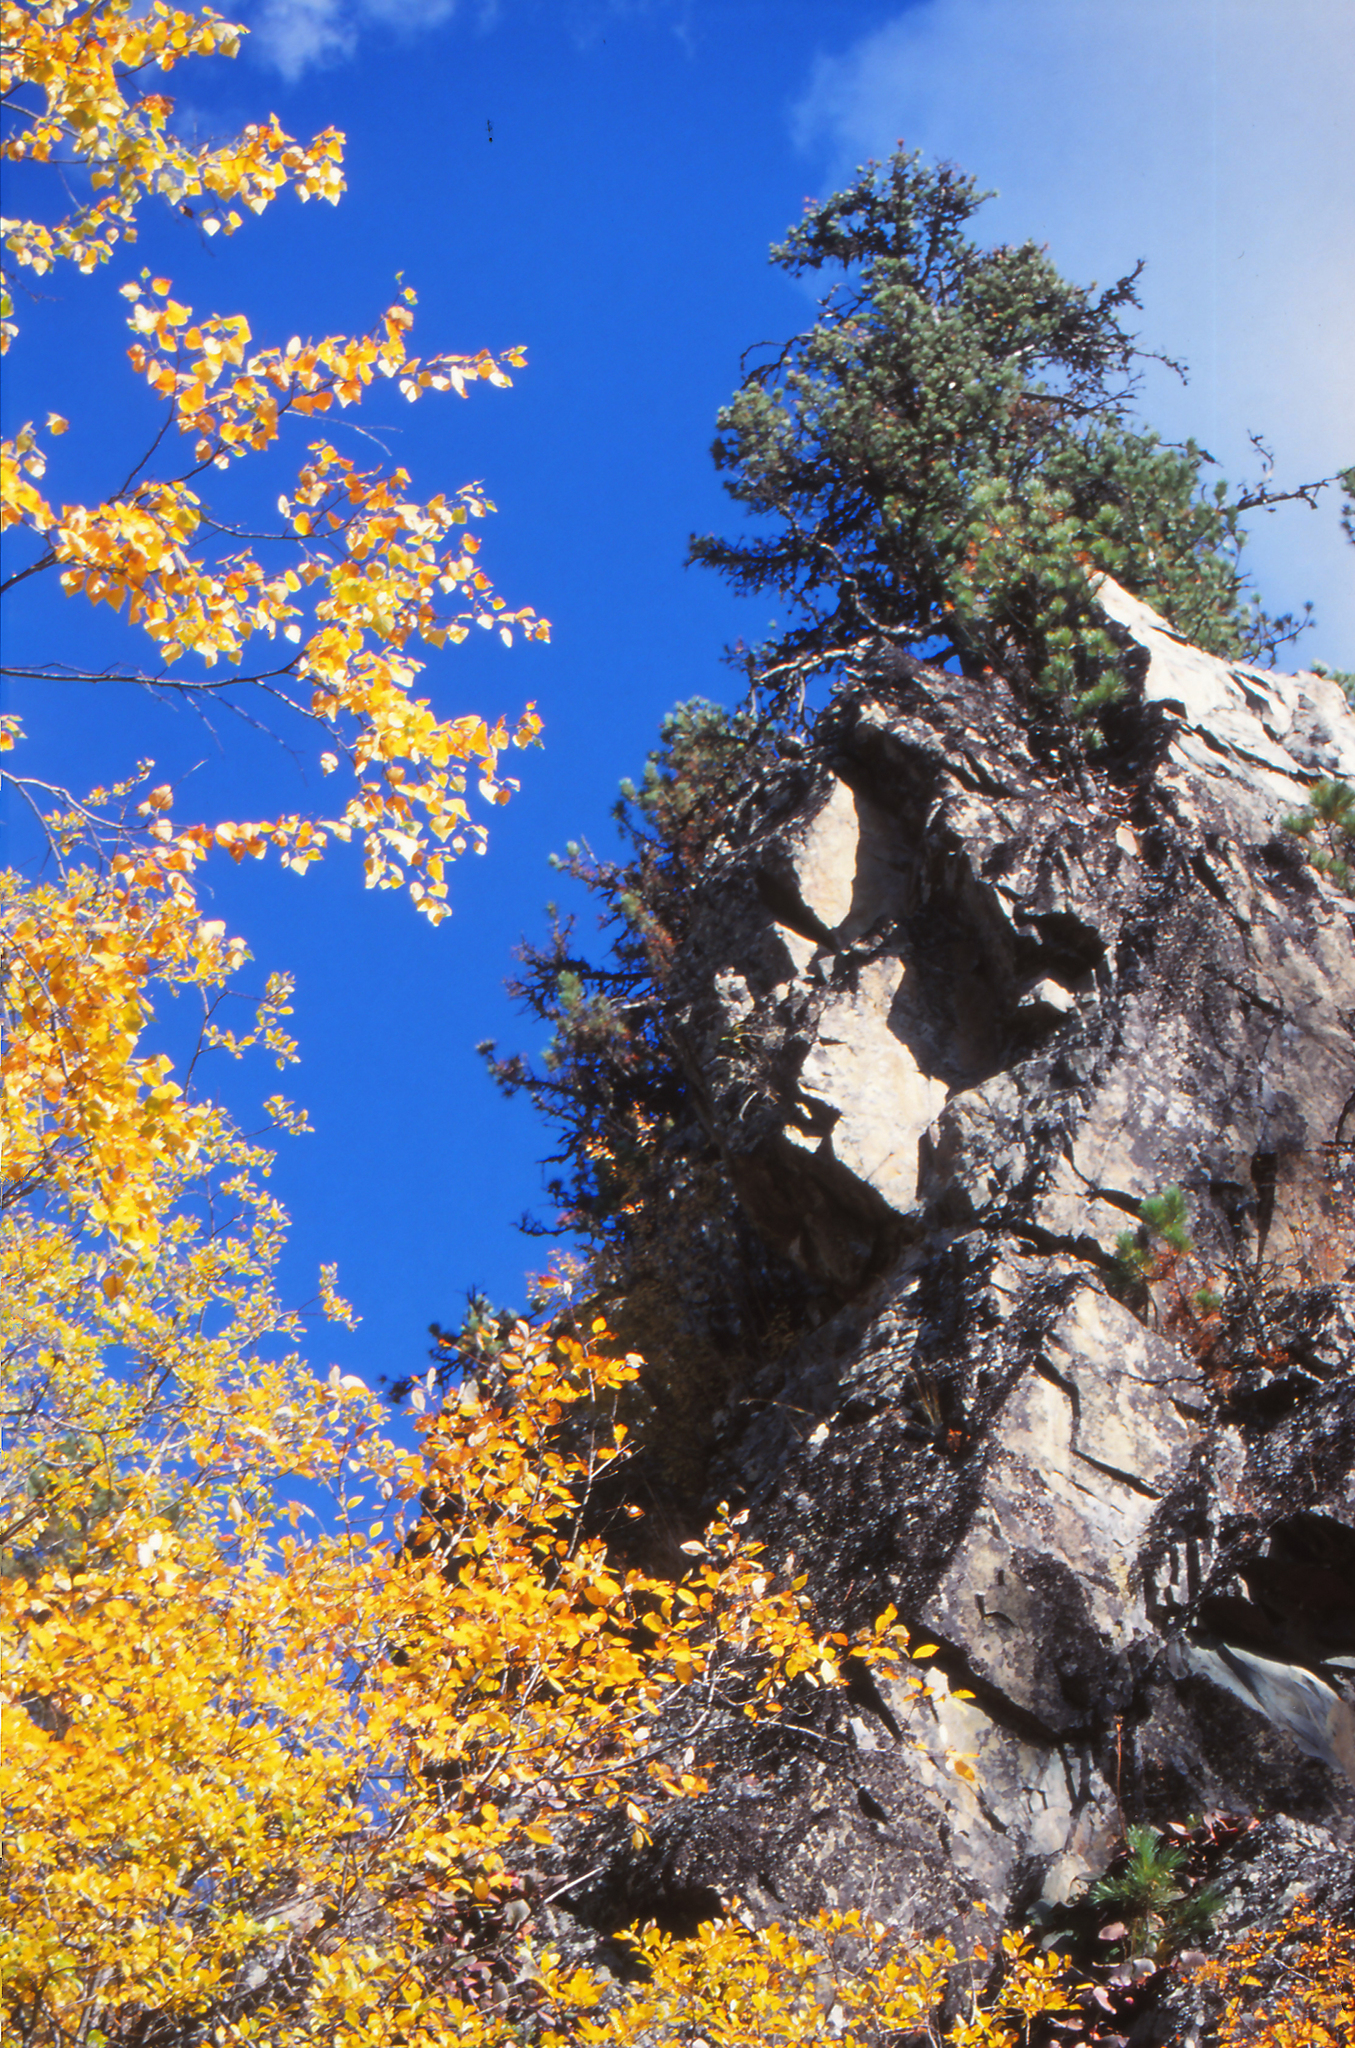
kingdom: Plantae
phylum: Tracheophyta
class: Pinopsida
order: Pinales
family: Pinaceae
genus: Picea
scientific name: Picea obovata
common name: Siberian spruce
